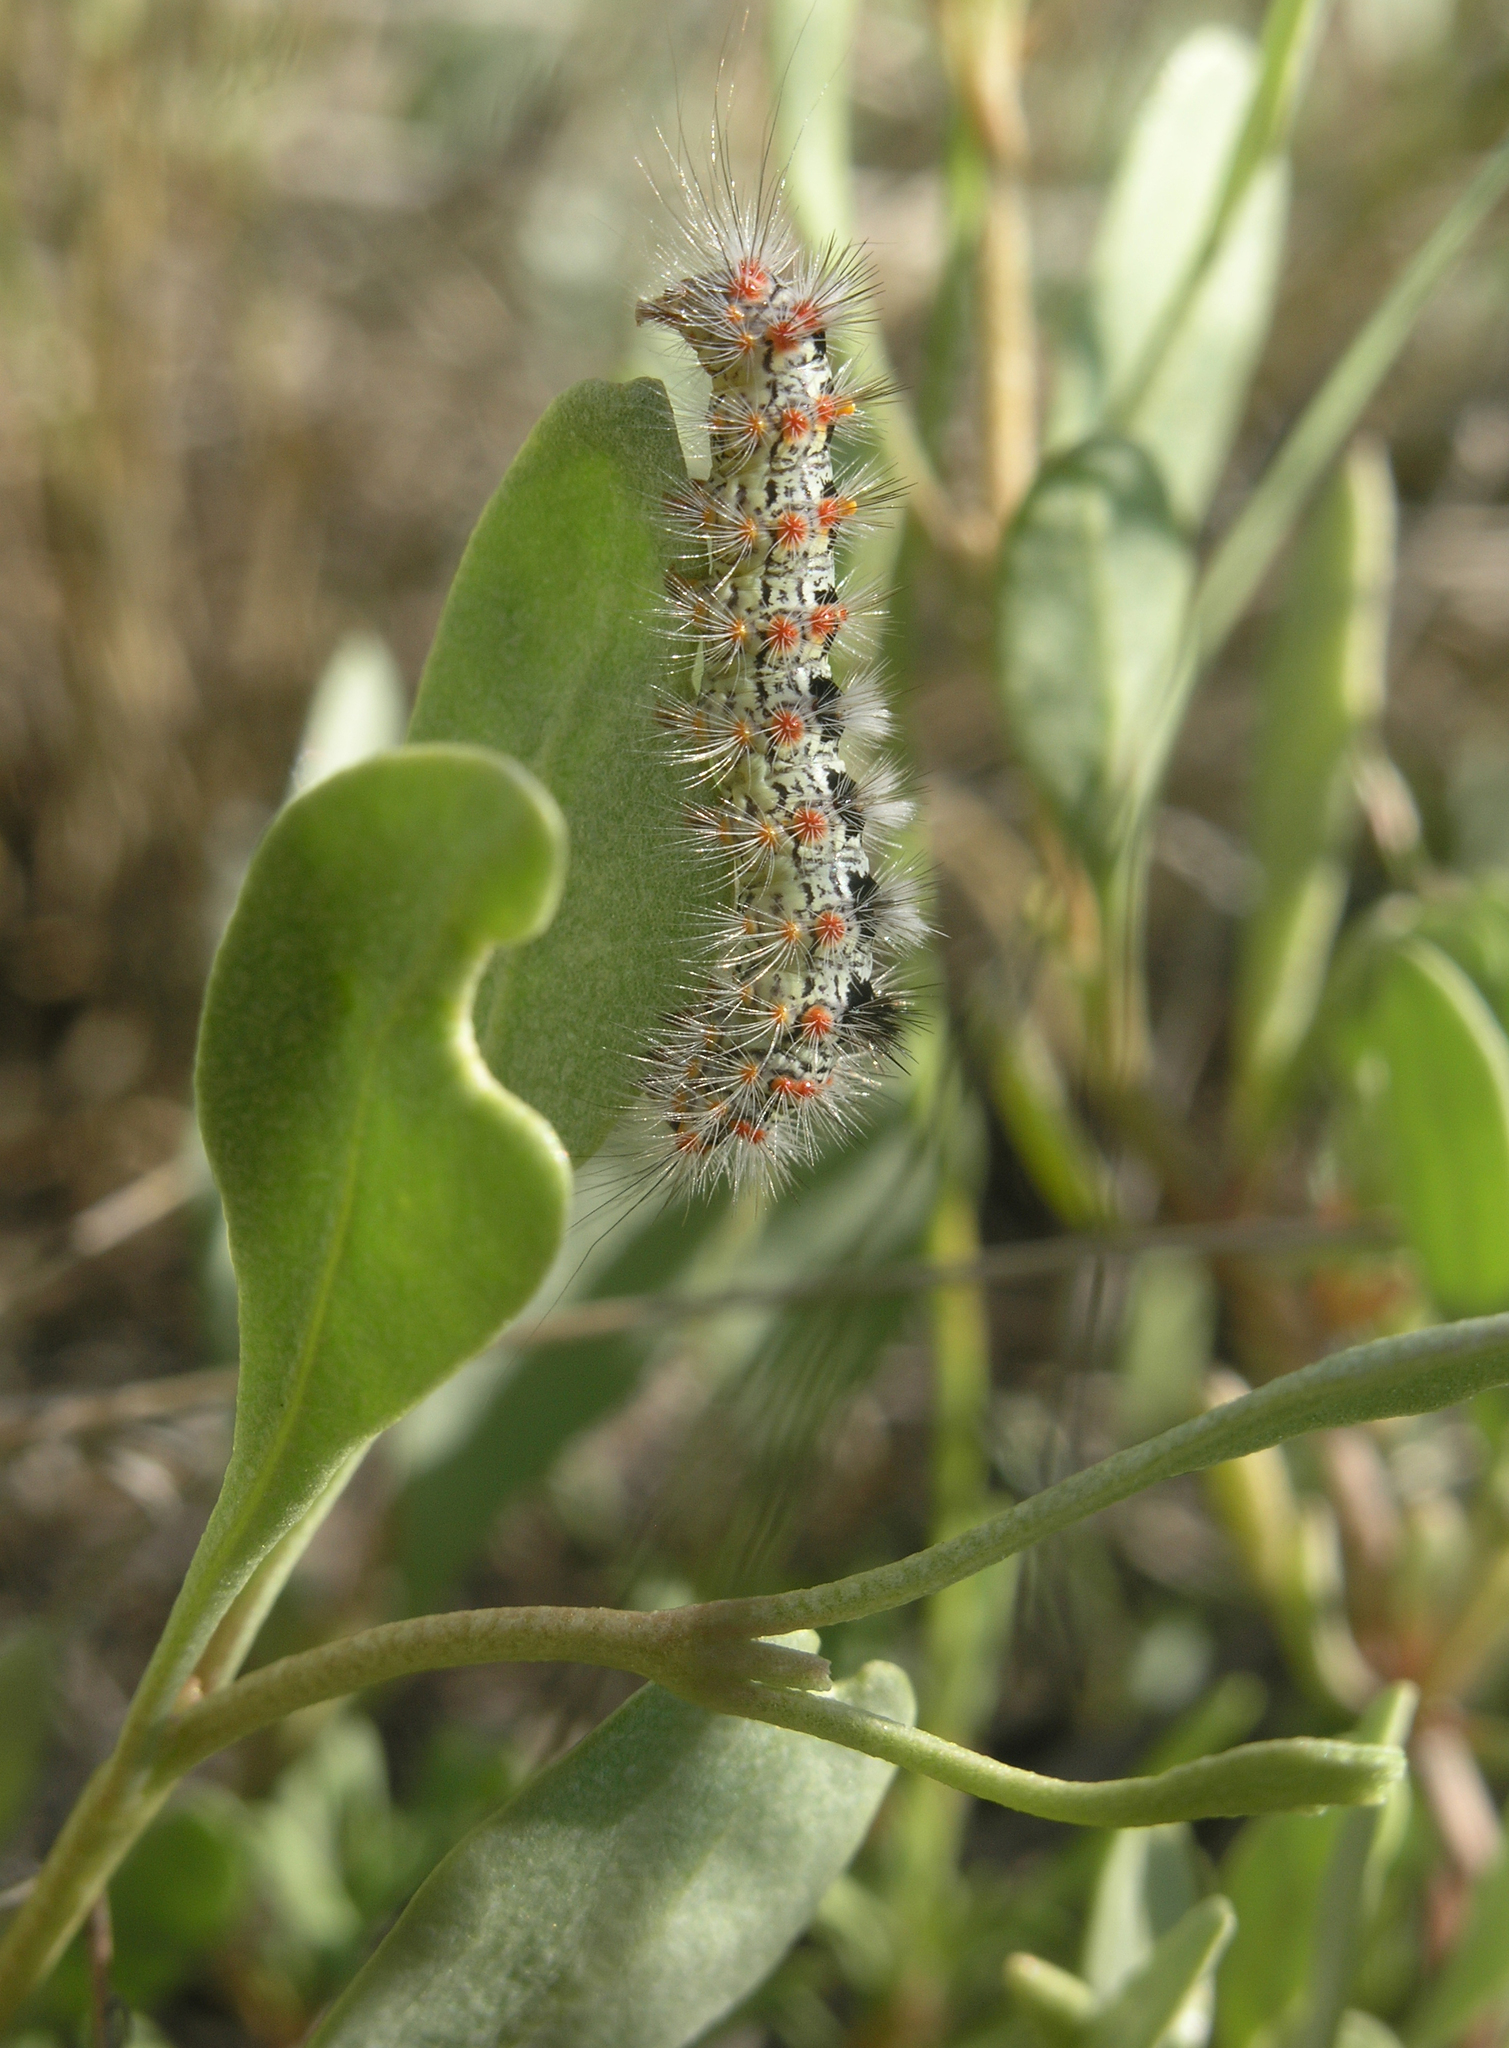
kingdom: Animalia
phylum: Arthropoda
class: Insecta
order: Lepidoptera
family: Erebidae
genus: Orgyia
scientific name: Orgyia dubia
